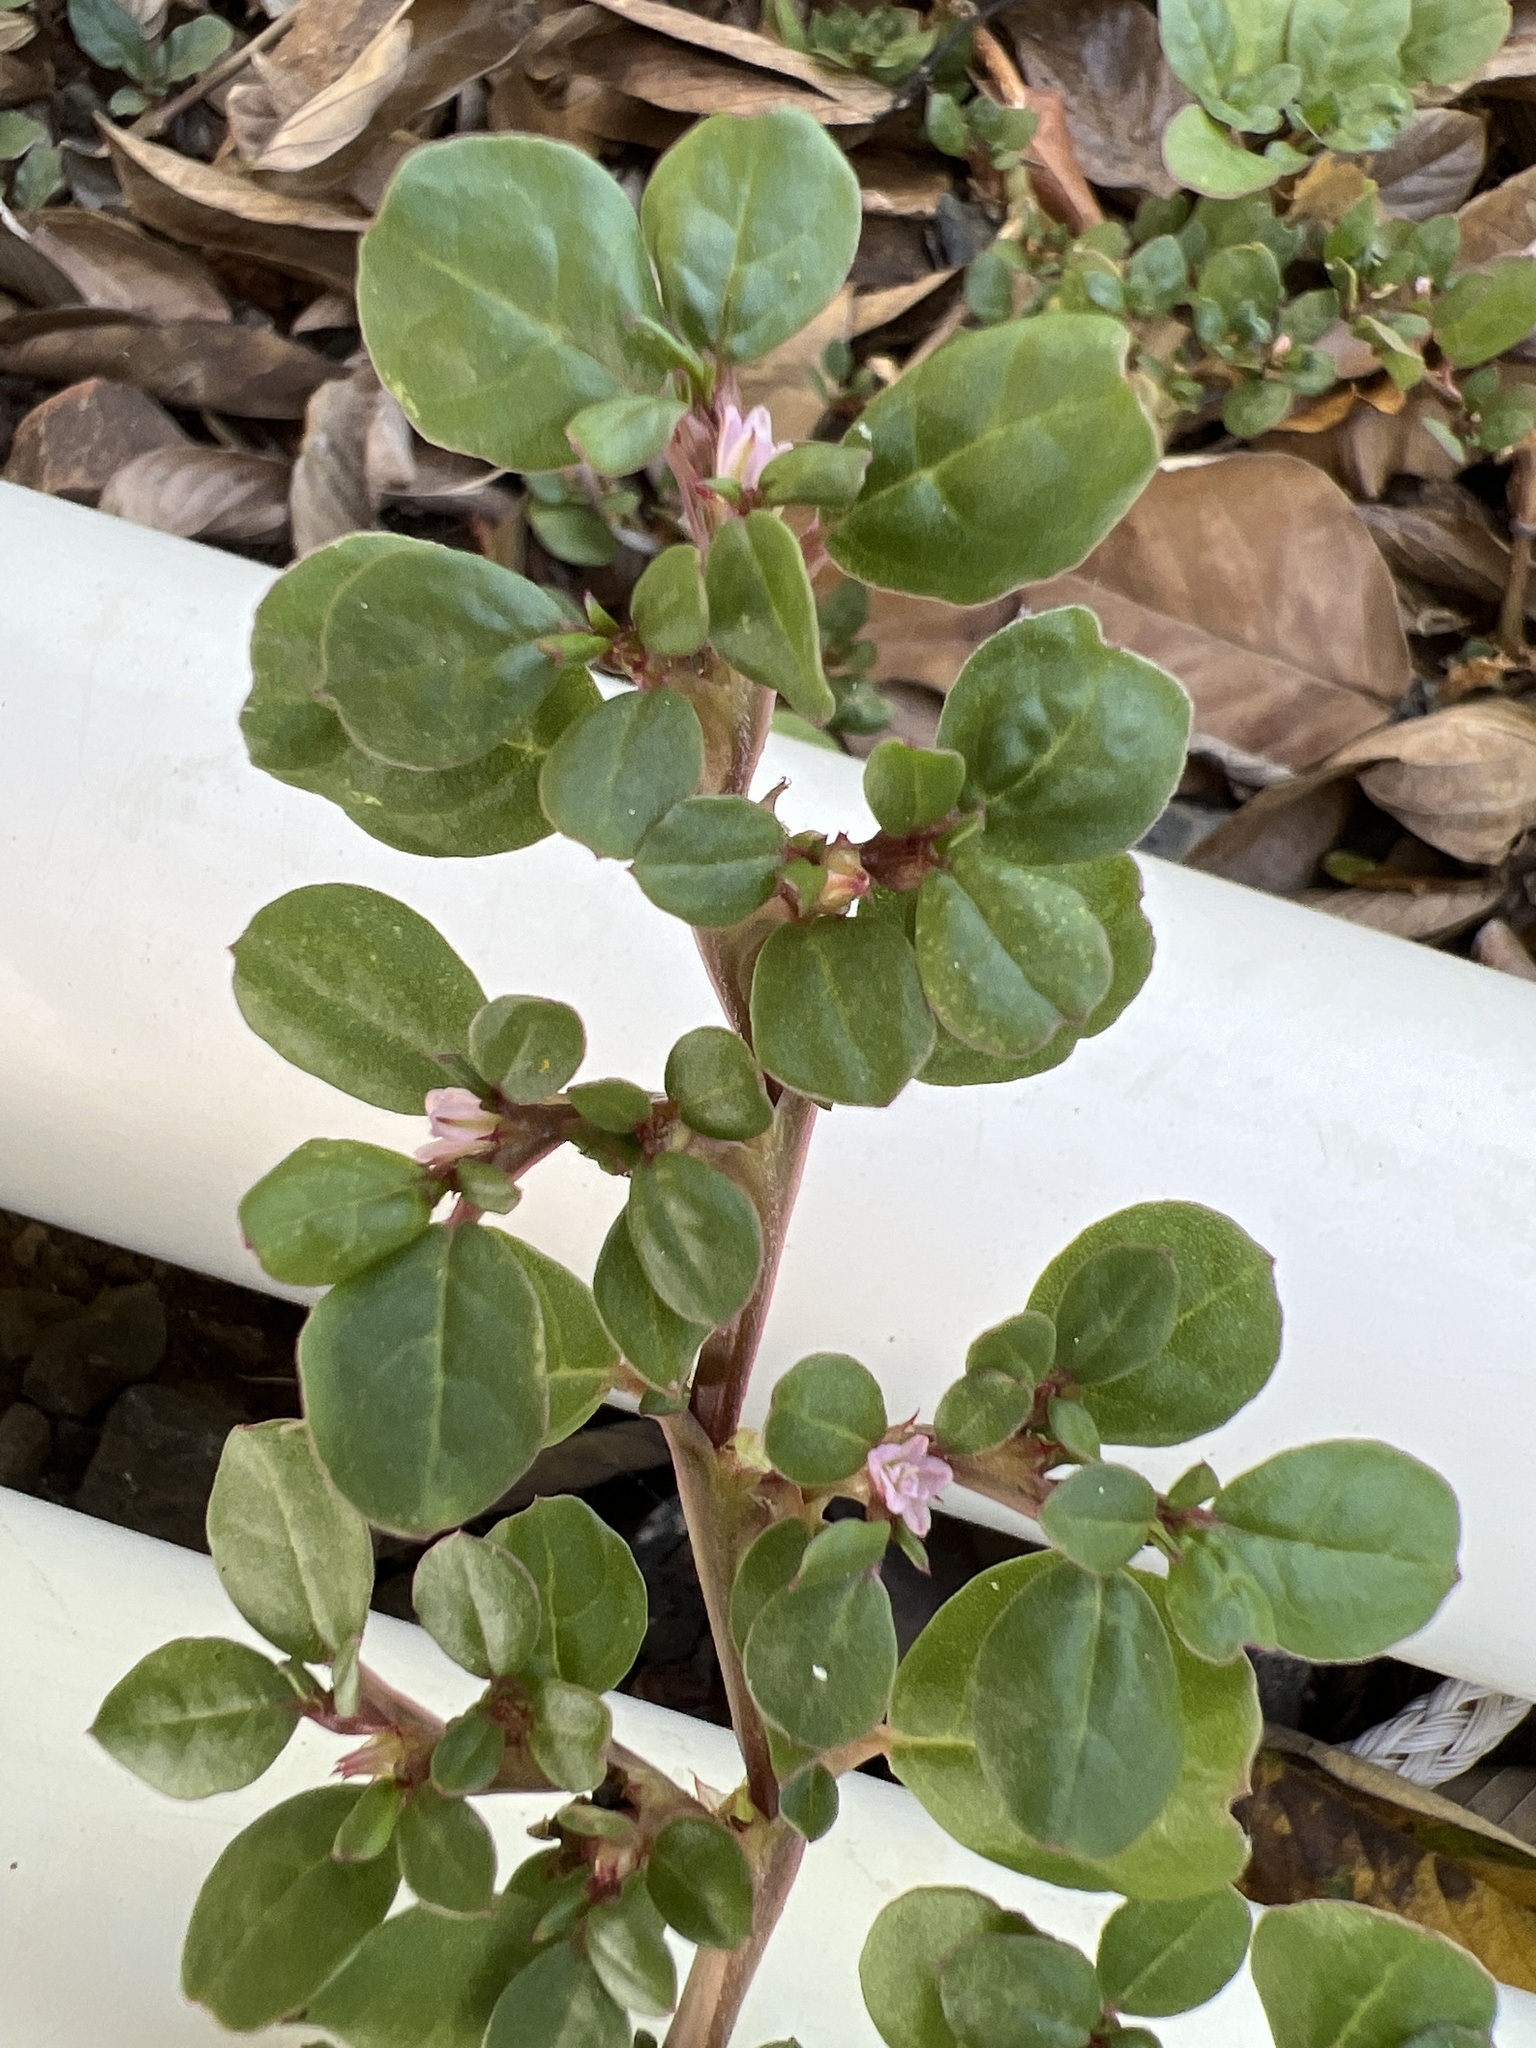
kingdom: Plantae
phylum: Tracheophyta
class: Magnoliopsida
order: Caryophyllales
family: Aizoaceae
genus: Trianthema
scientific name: Trianthema portulacastrum
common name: Desert horsepurslane
